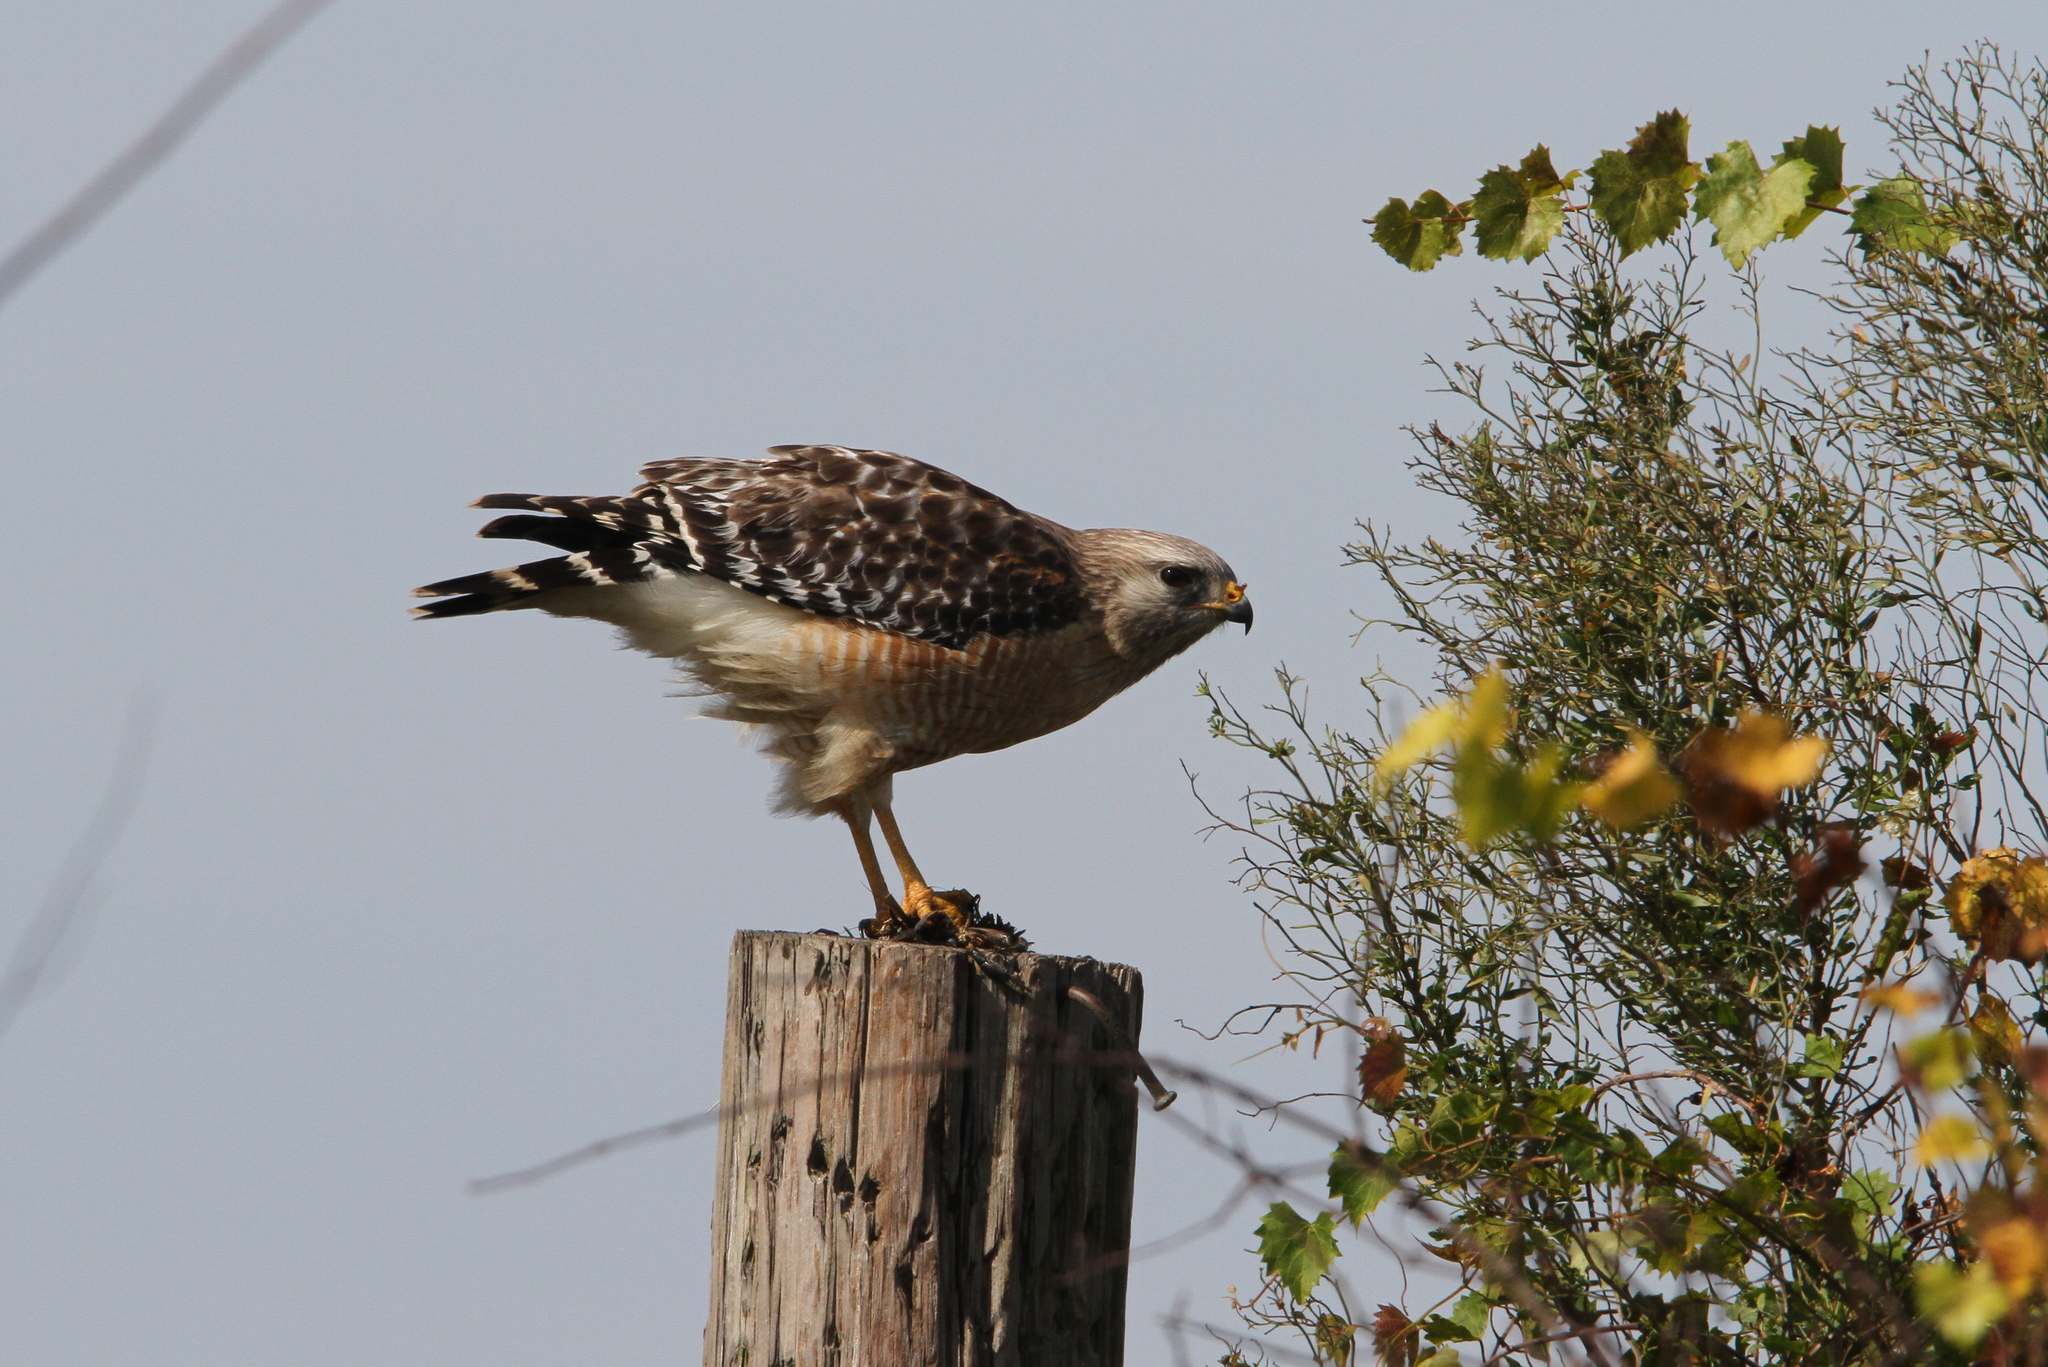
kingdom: Animalia
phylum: Chordata
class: Aves
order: Accipitriformes
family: Accipitridae
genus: Buteo
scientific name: Buteo lineatus
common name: Red-shouldered hawk
